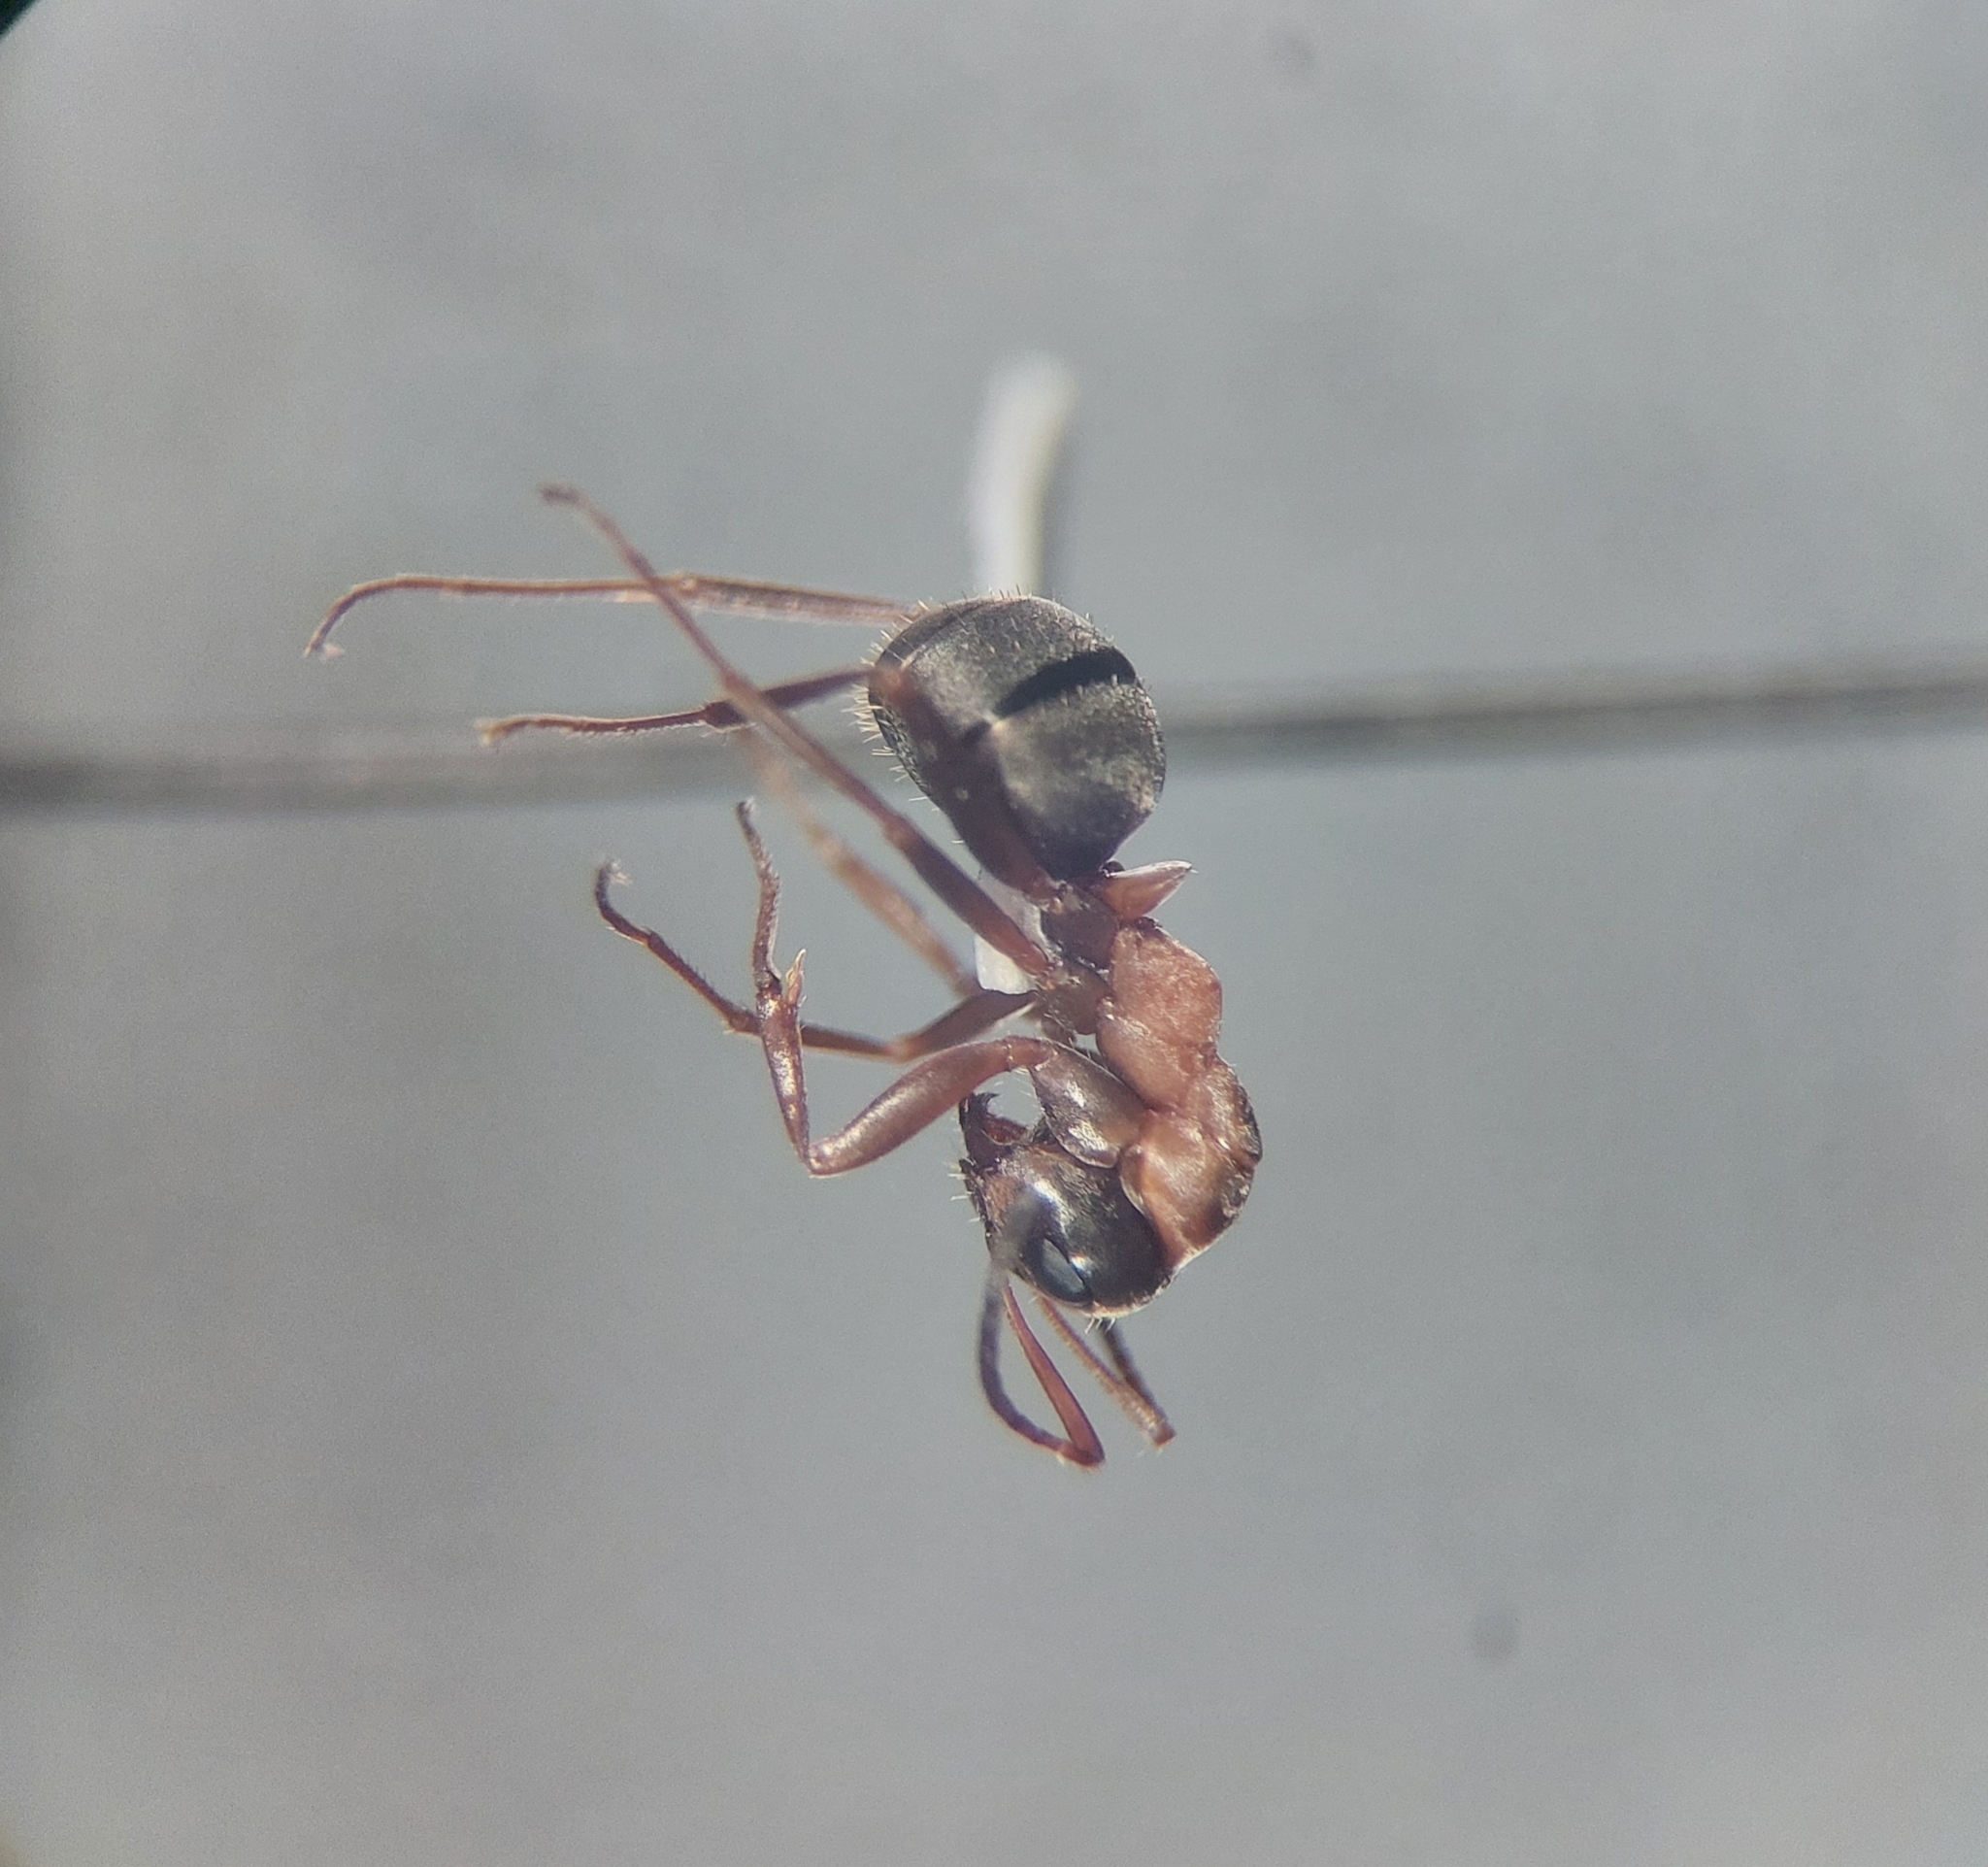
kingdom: Animalia
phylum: Arthropoda
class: Insecta
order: Hymenoptera
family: Formicidae
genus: Formica
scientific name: Formica cunicularia
